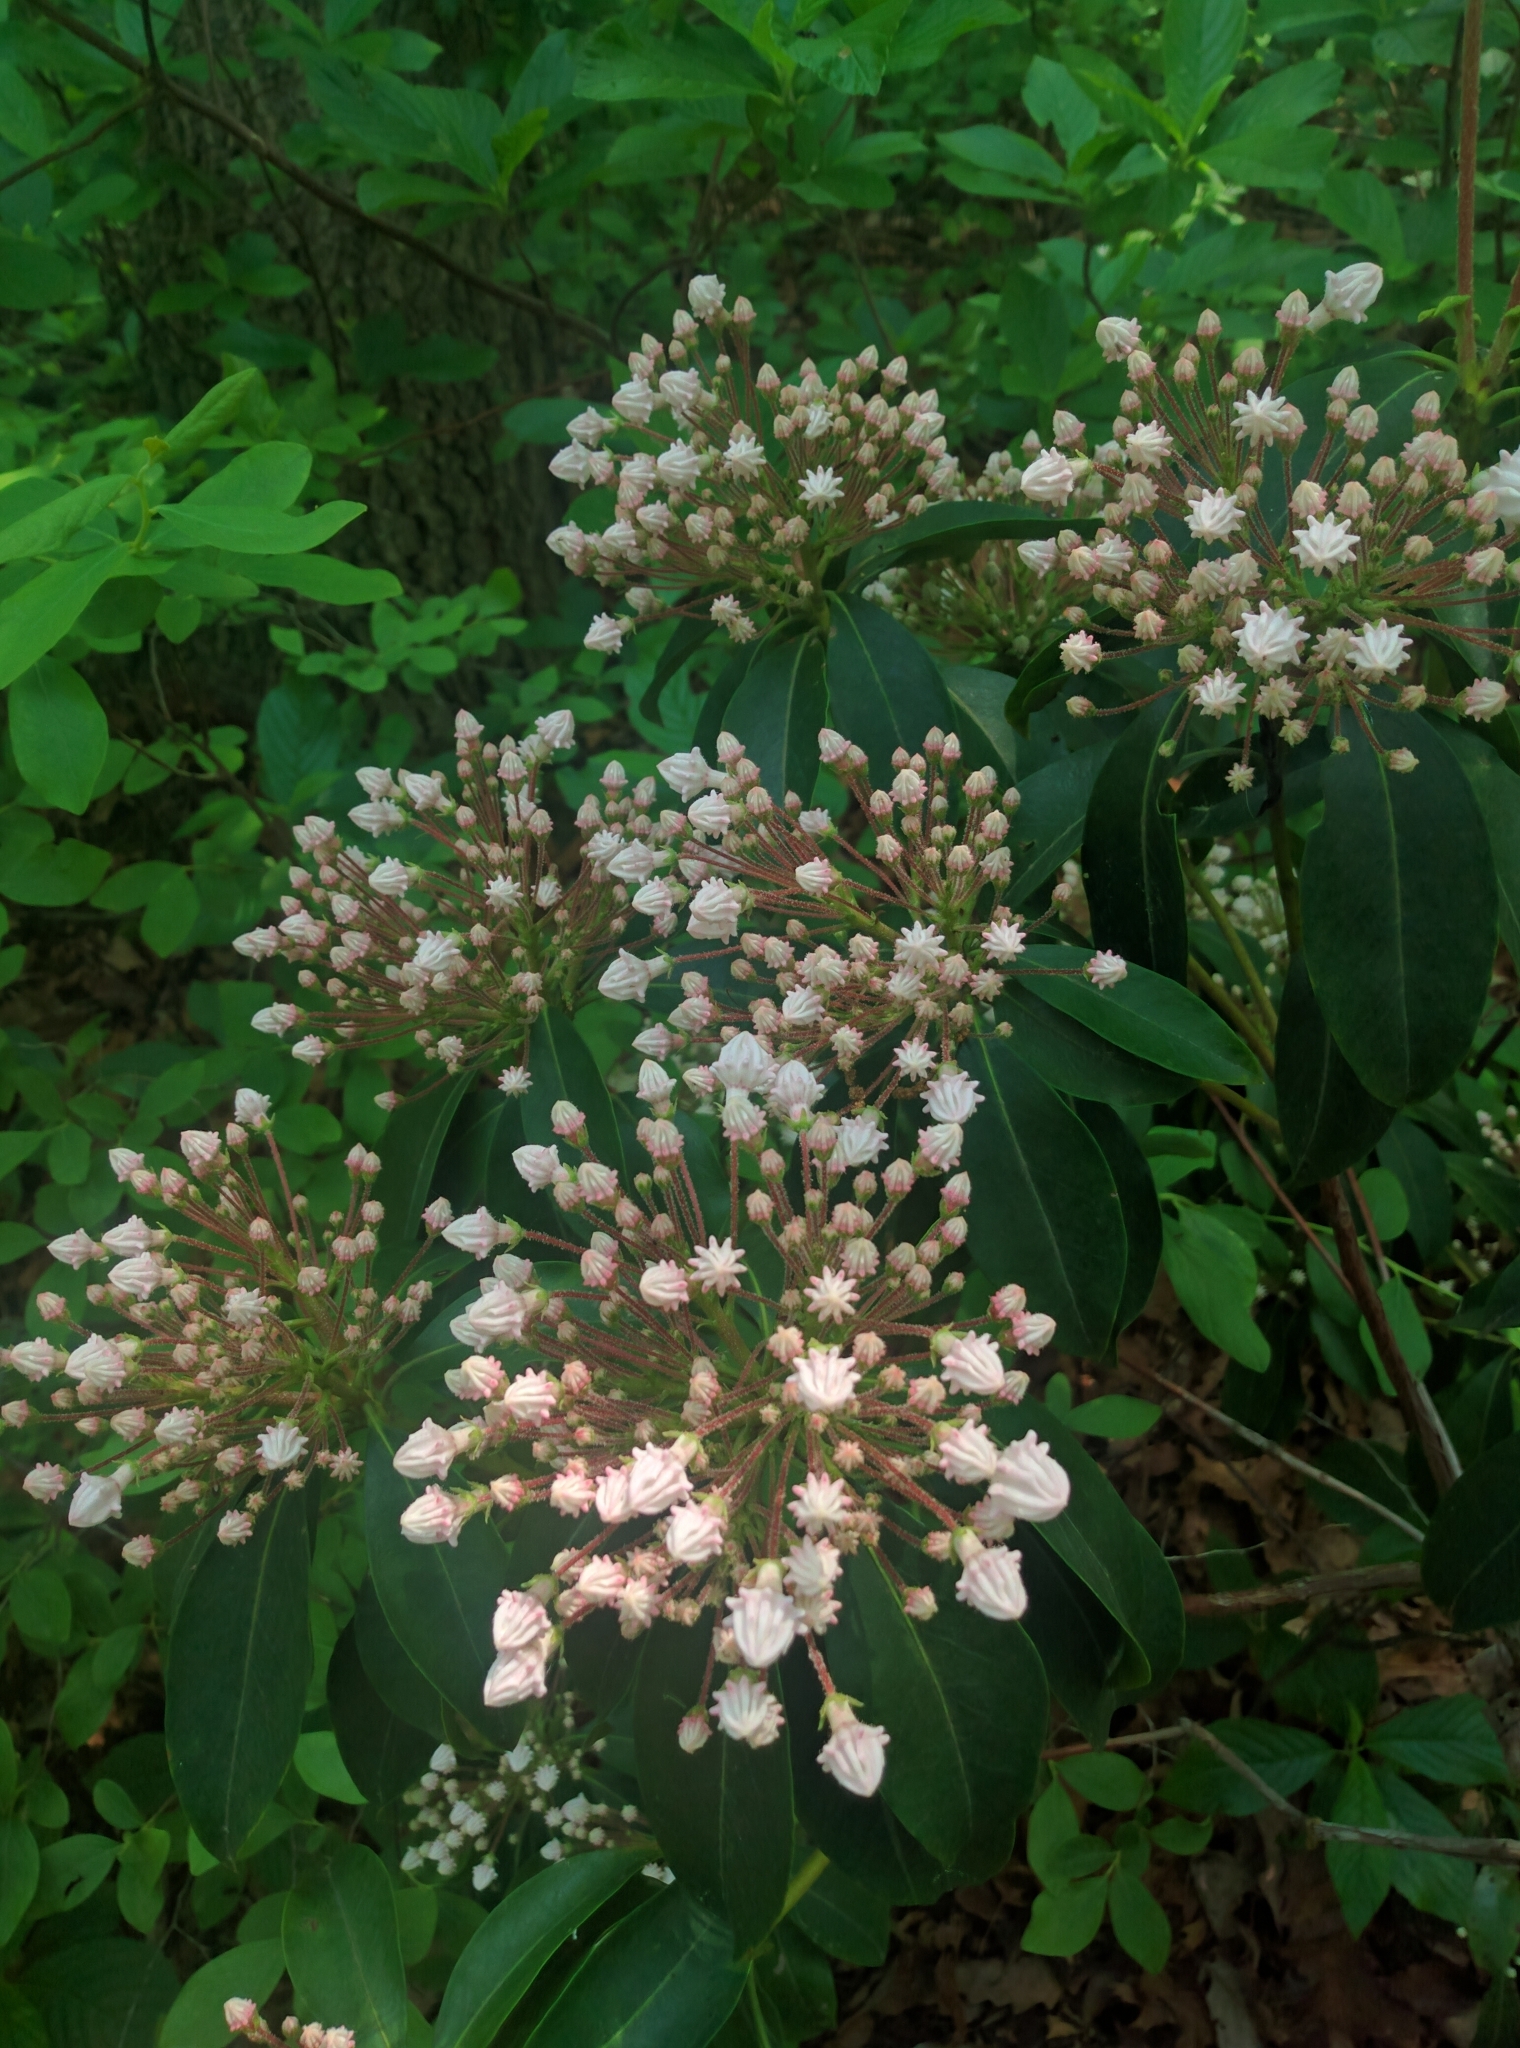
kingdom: Plantae
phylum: Tracheophyta
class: Magnoliopsida
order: Ericales
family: Ericaceae
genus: Kalmia
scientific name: Kalmia latifolia
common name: Mountain-laurel
